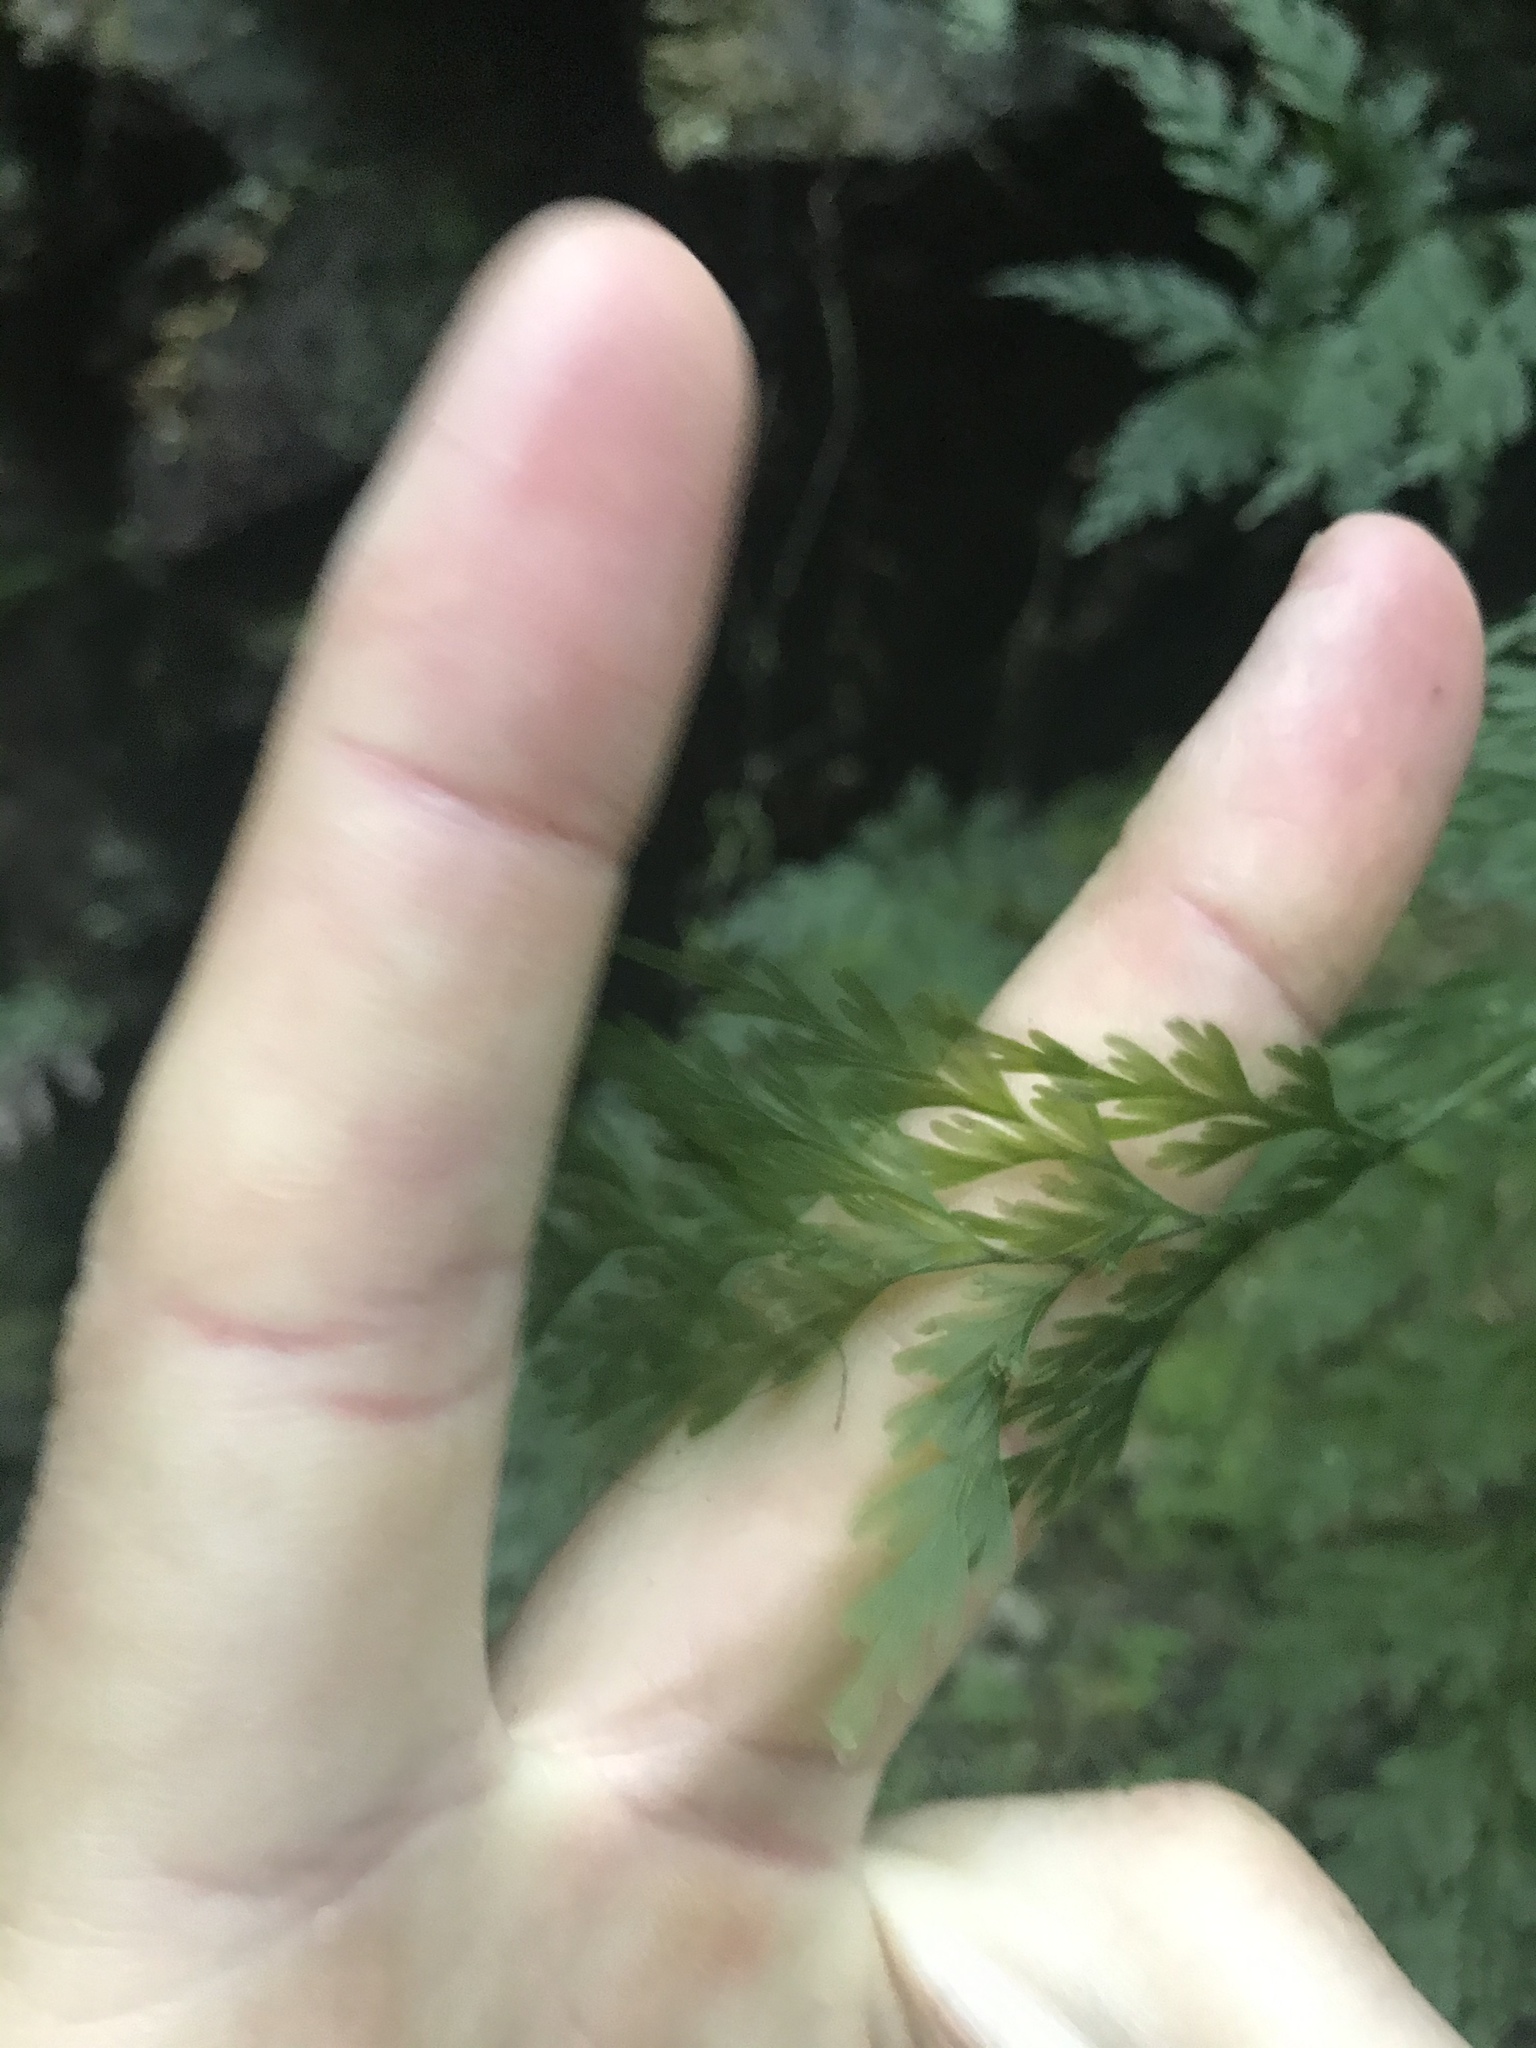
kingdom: Plantae
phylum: Tracheophyta
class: Polypodiopsida
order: Hymenophyllales
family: Hymenophyllaceae
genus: Hymenophyllum
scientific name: Hymenophyllum demissum
